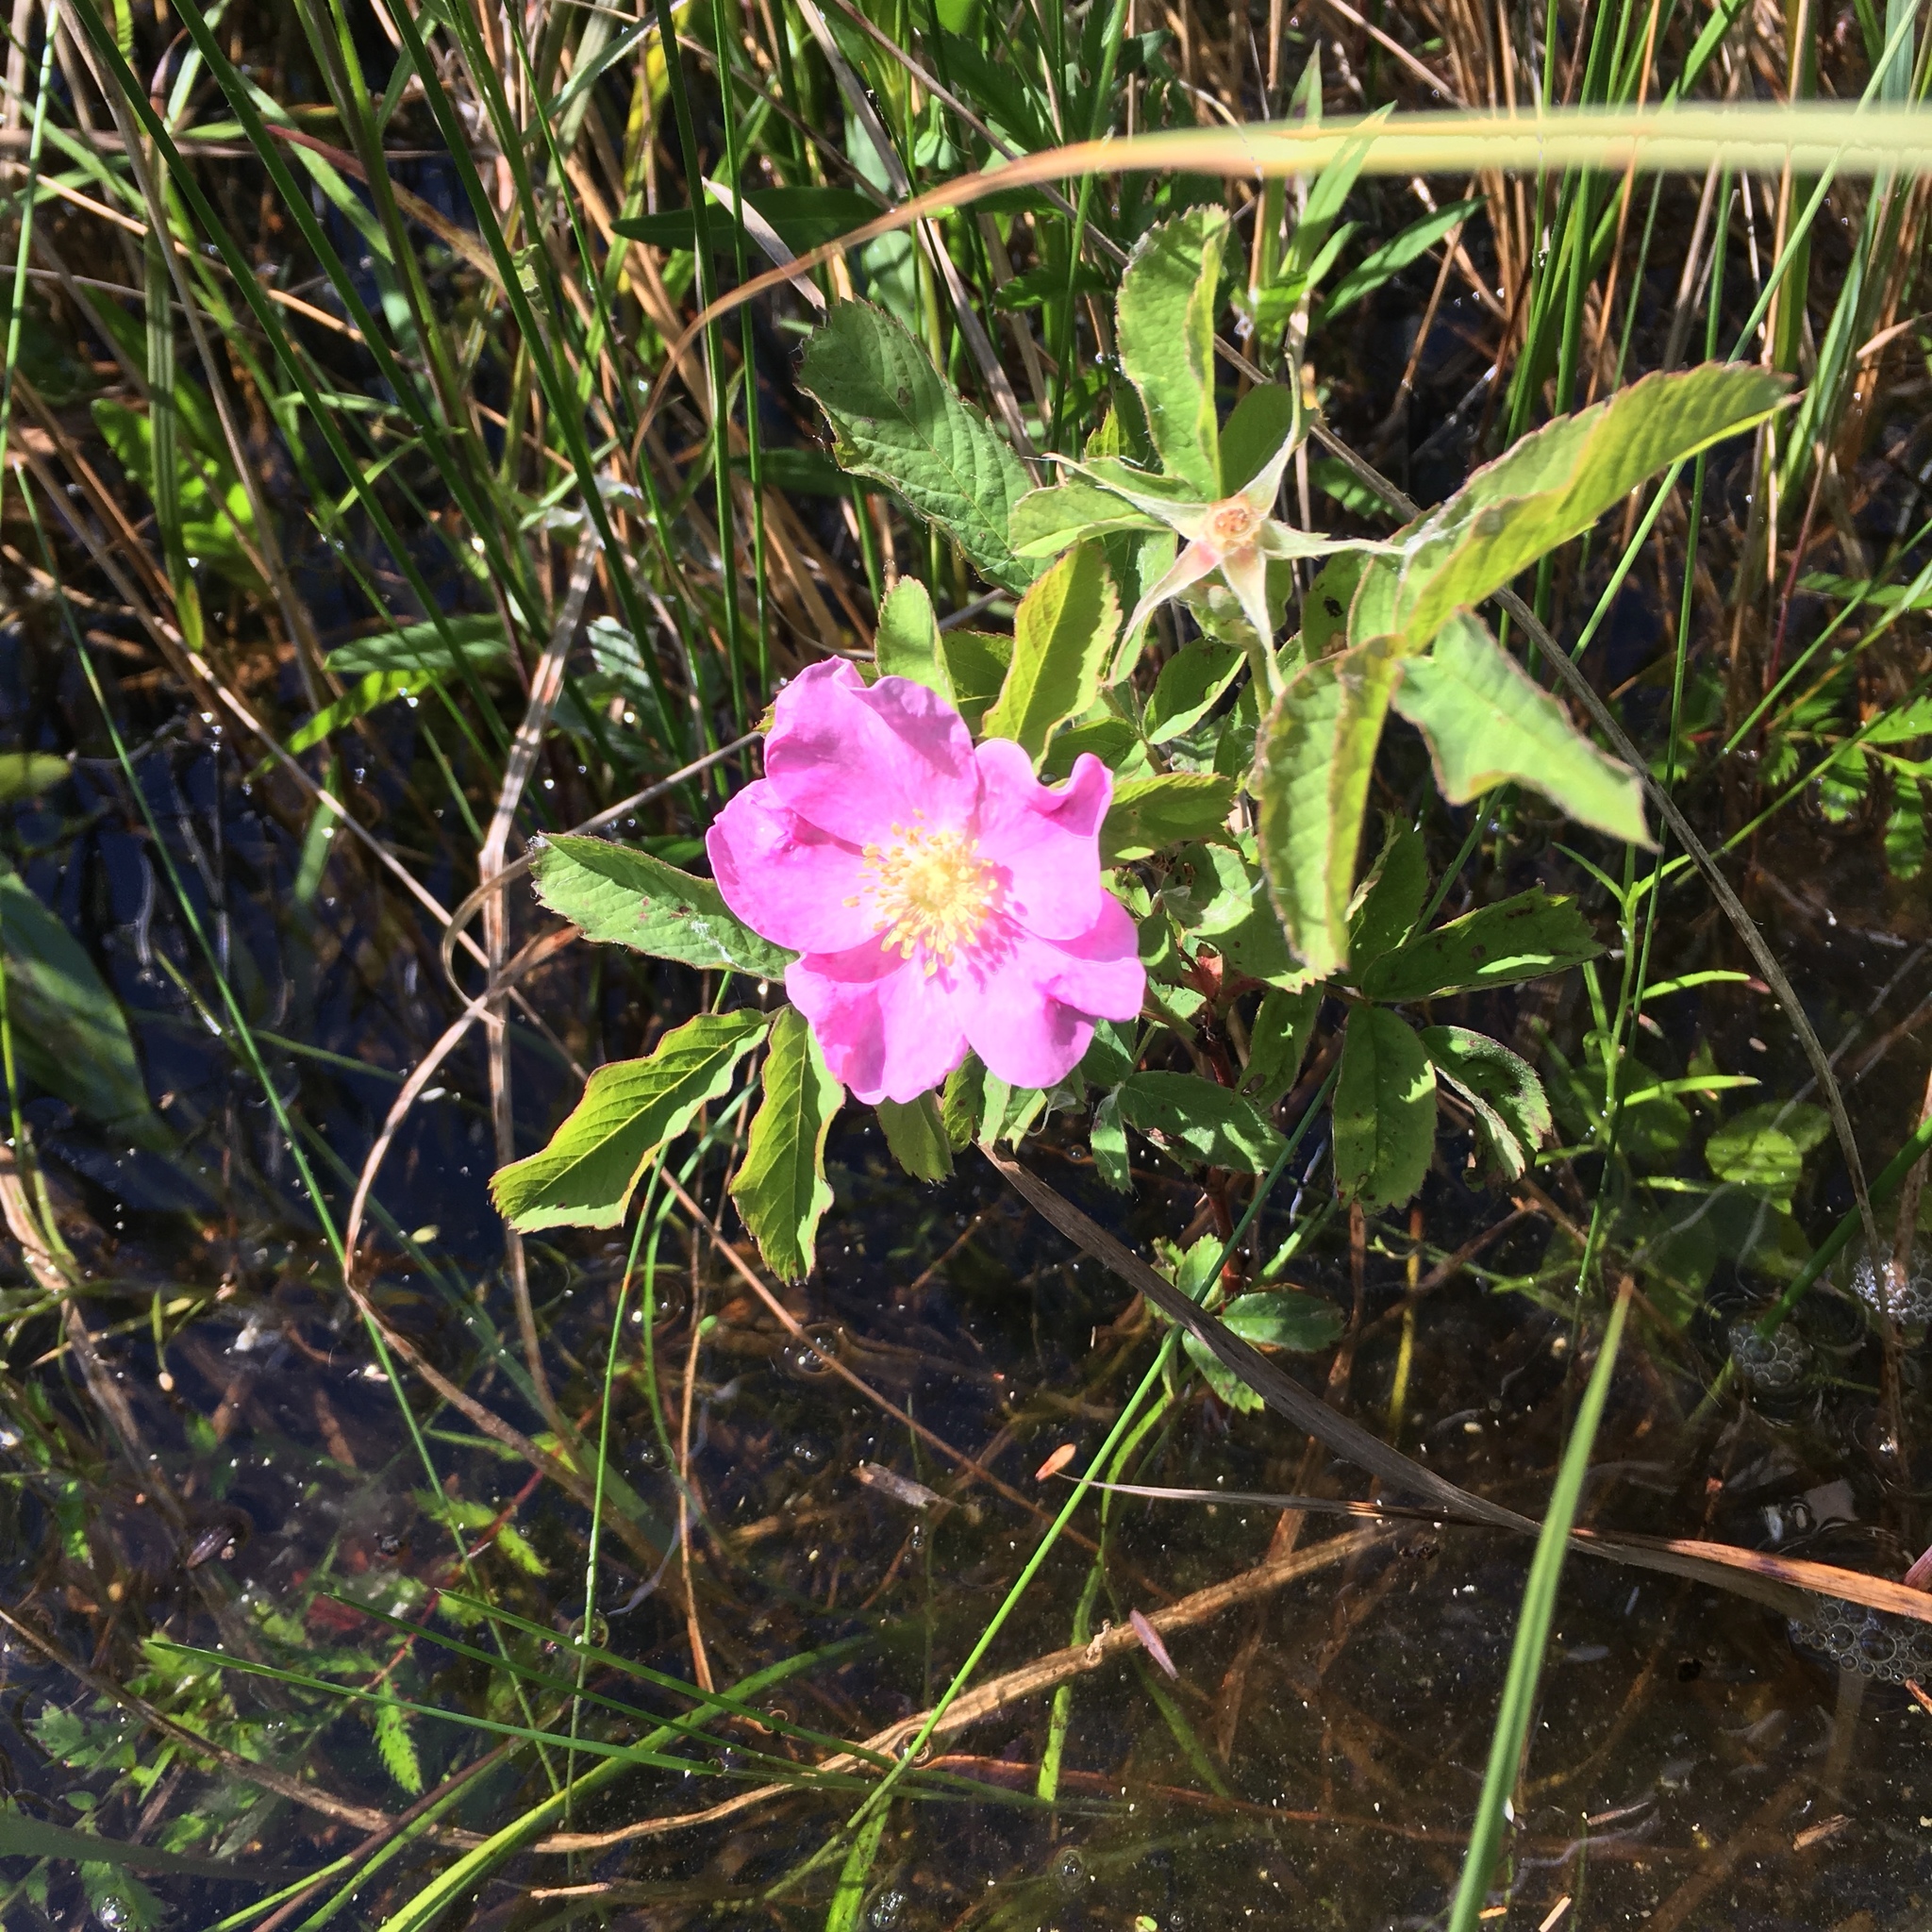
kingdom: Plantae
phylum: Tracheophyta
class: Magnoliopsida
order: Rosales
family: Rosaceae
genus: Rosa
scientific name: Rosa palustris
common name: Swamp rose
